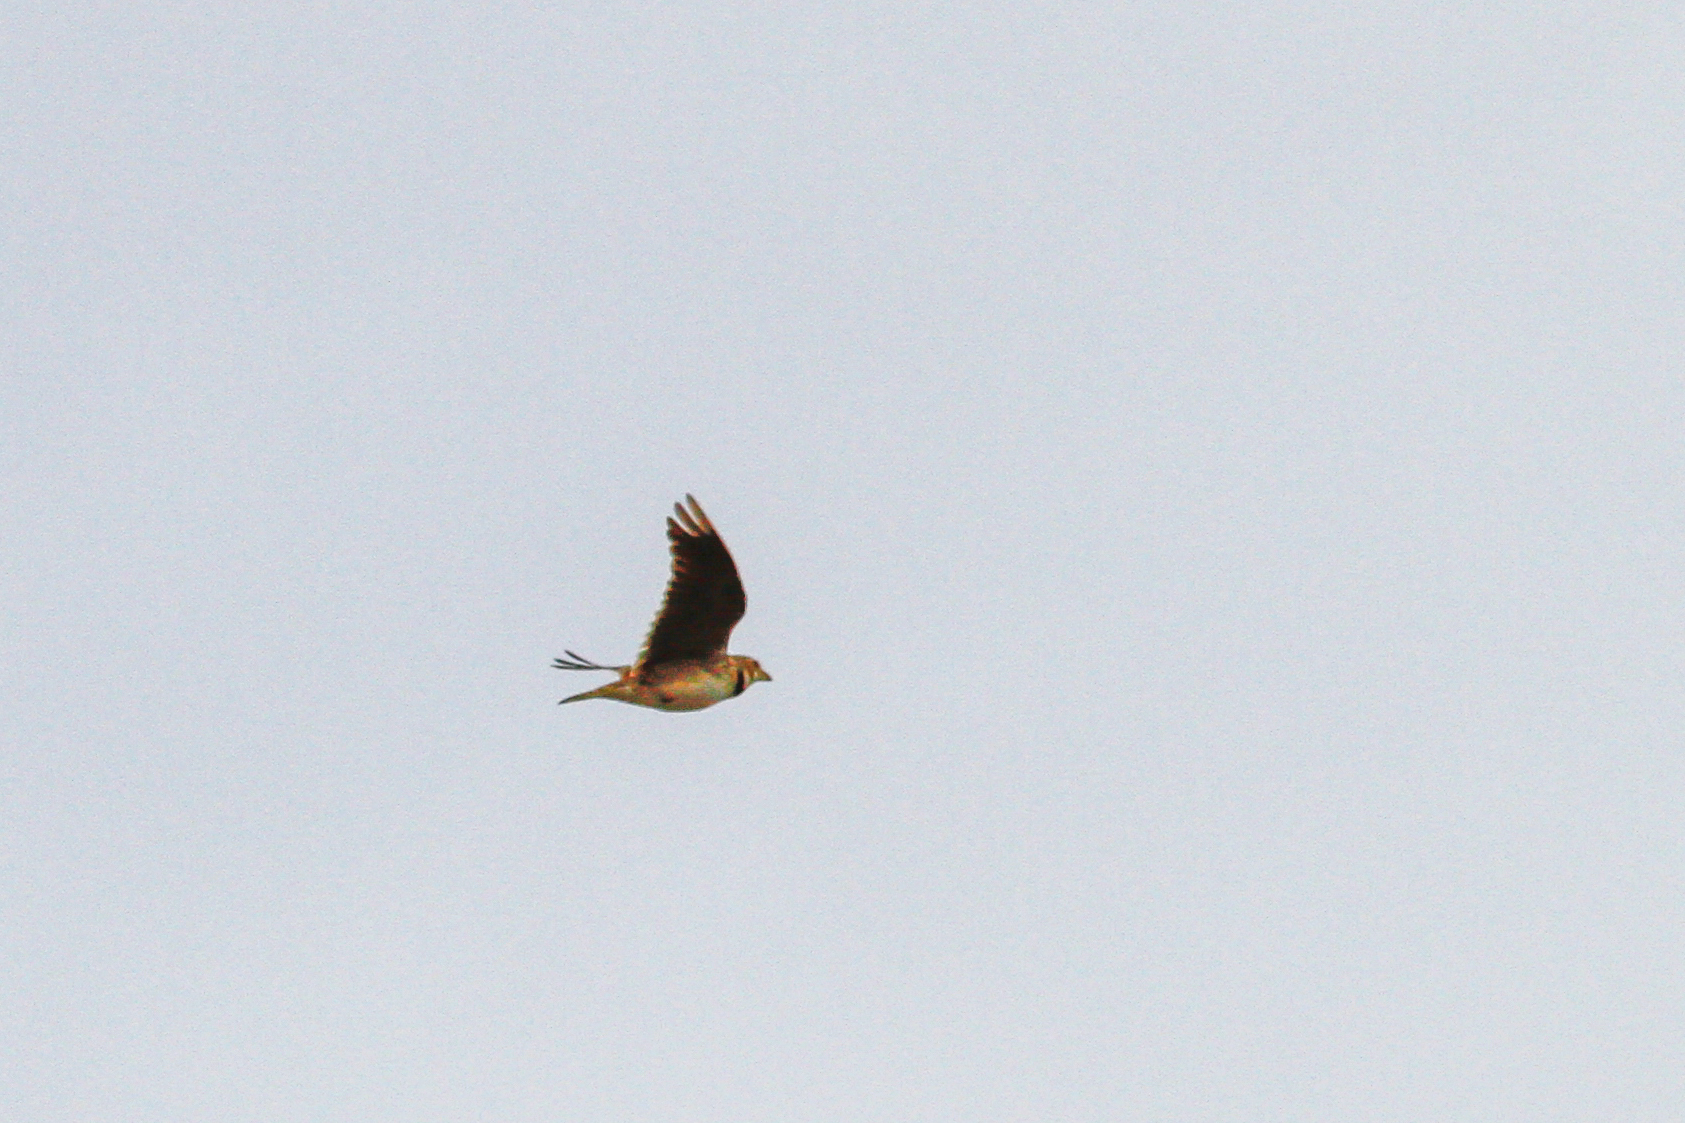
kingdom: Animalia
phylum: Chordata
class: Aves
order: Passeriformes
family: Alaudidae
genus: Melanocorypha
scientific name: Melanocorypha calandra
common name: Calandra lark
